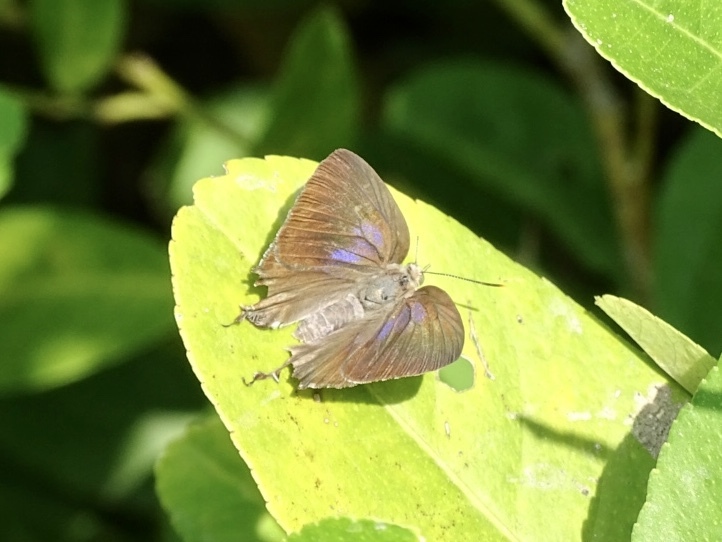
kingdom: Animalia
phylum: Arthropoda
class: Insecta
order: Lepidoptera
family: Lycaenidae
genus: Remelana
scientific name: Remelana jangala
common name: Chocolate royal
